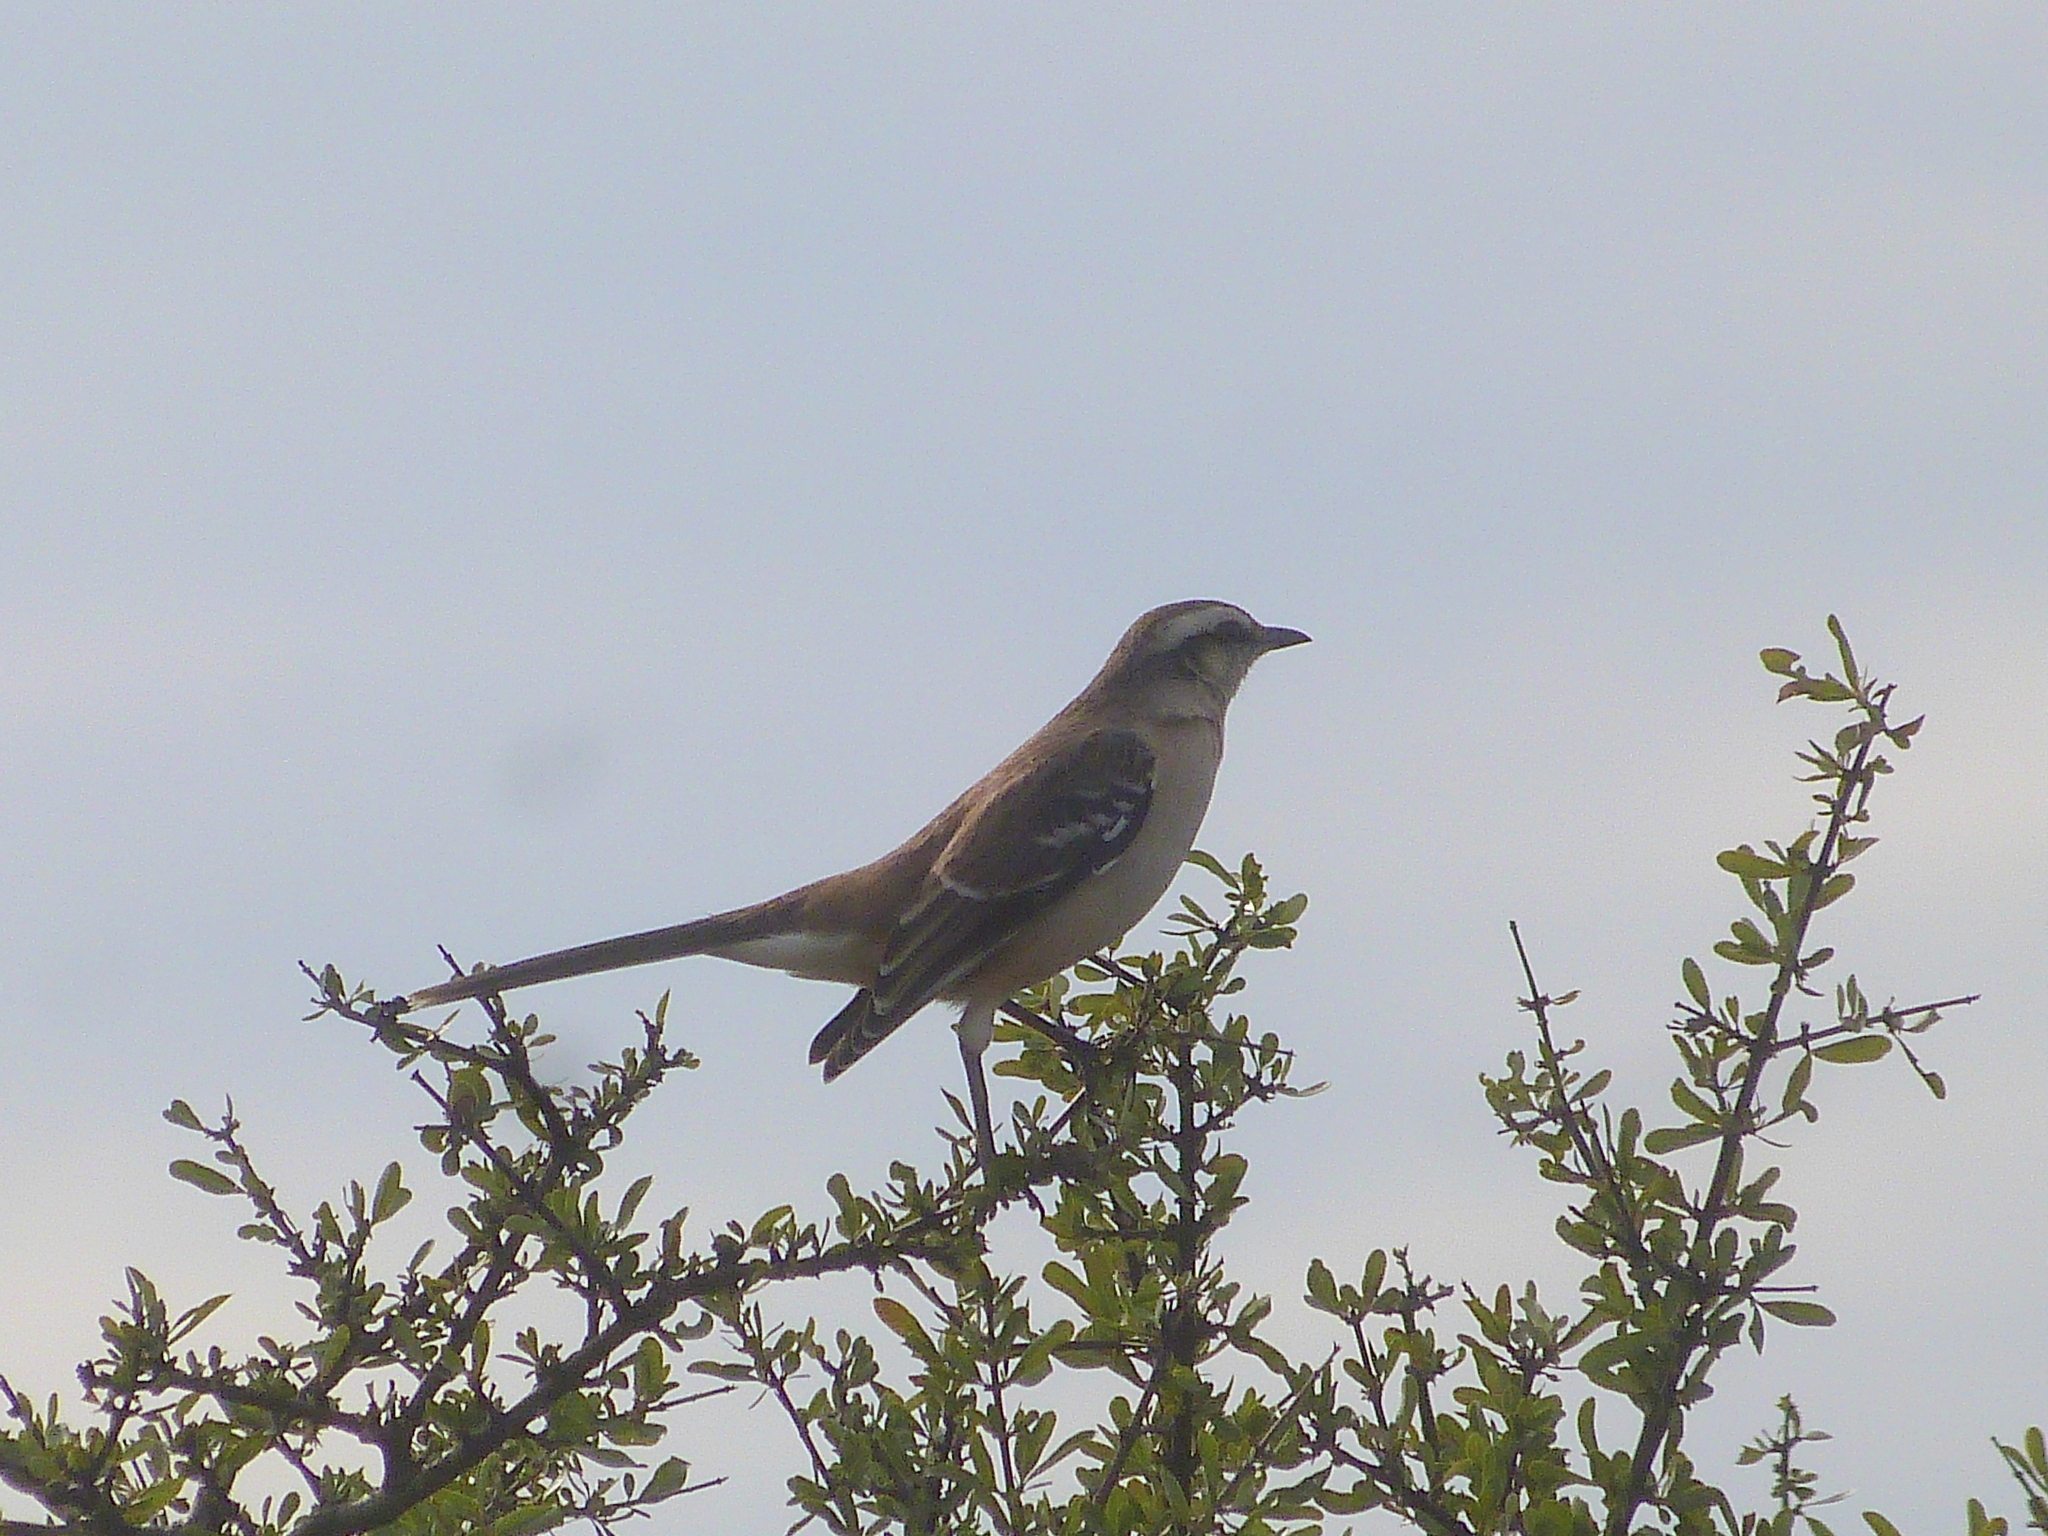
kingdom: Animalia
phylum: Chordata
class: Aves
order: Passeriformes
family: Mimidae
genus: Mimus
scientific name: Mimus saturninus
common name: Chalk-browed mockingbird
